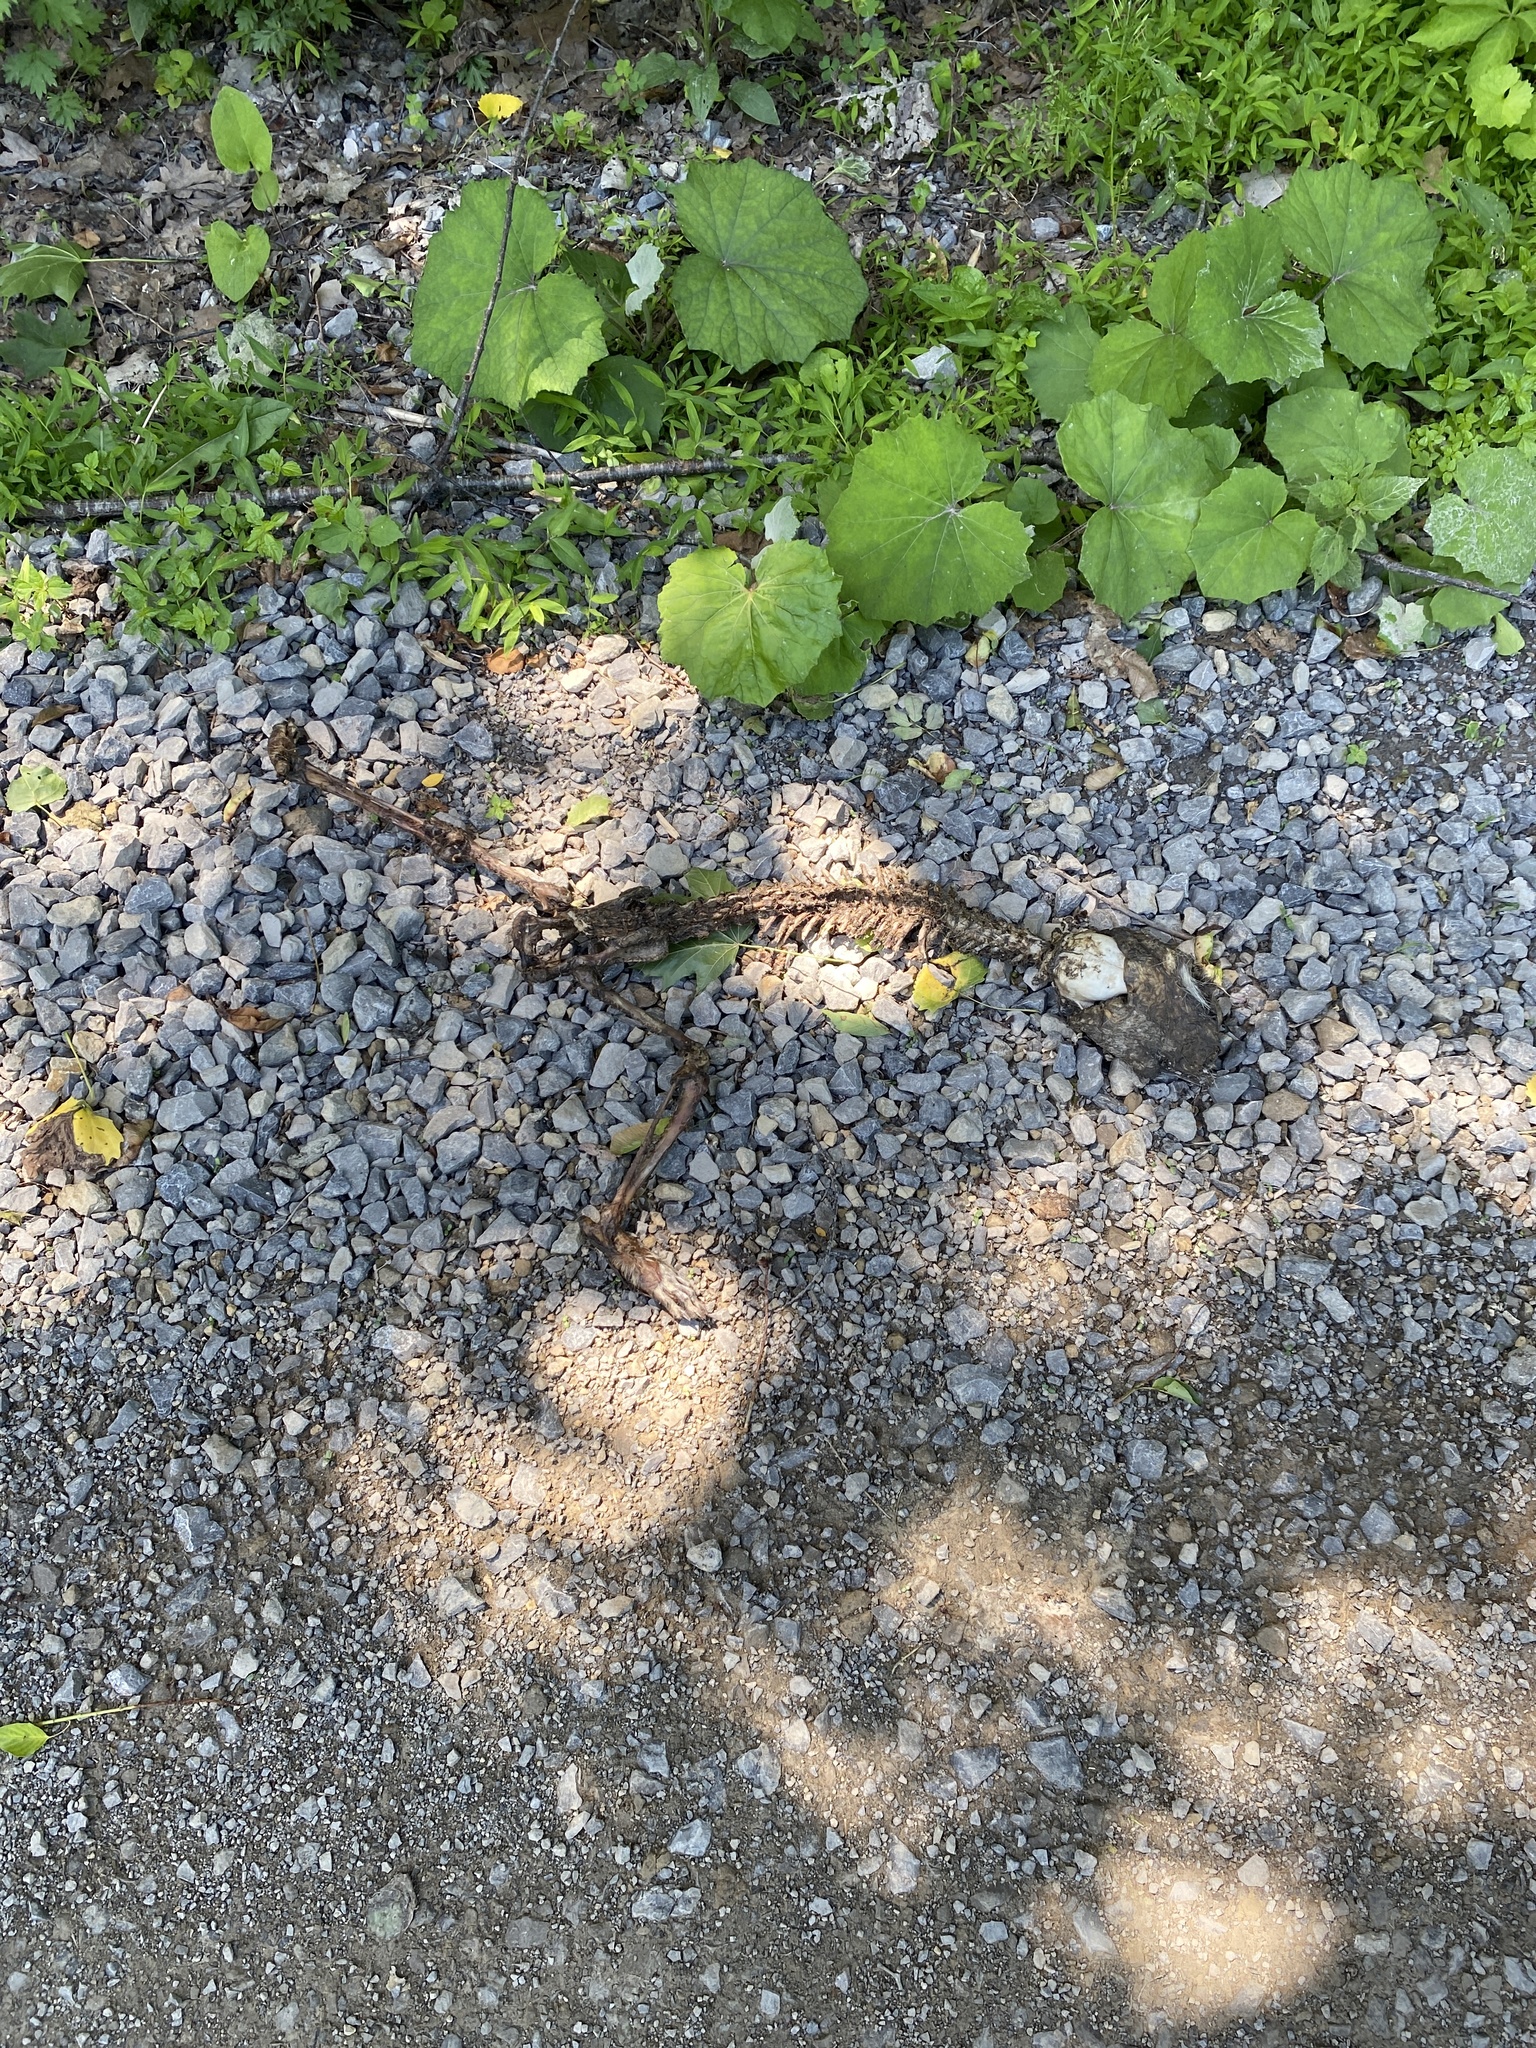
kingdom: Animalia
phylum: Chordata
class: Mammalia
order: Carnivora
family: Procyonidae
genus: Procyon
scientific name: Procyon lotor
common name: Raccoon
